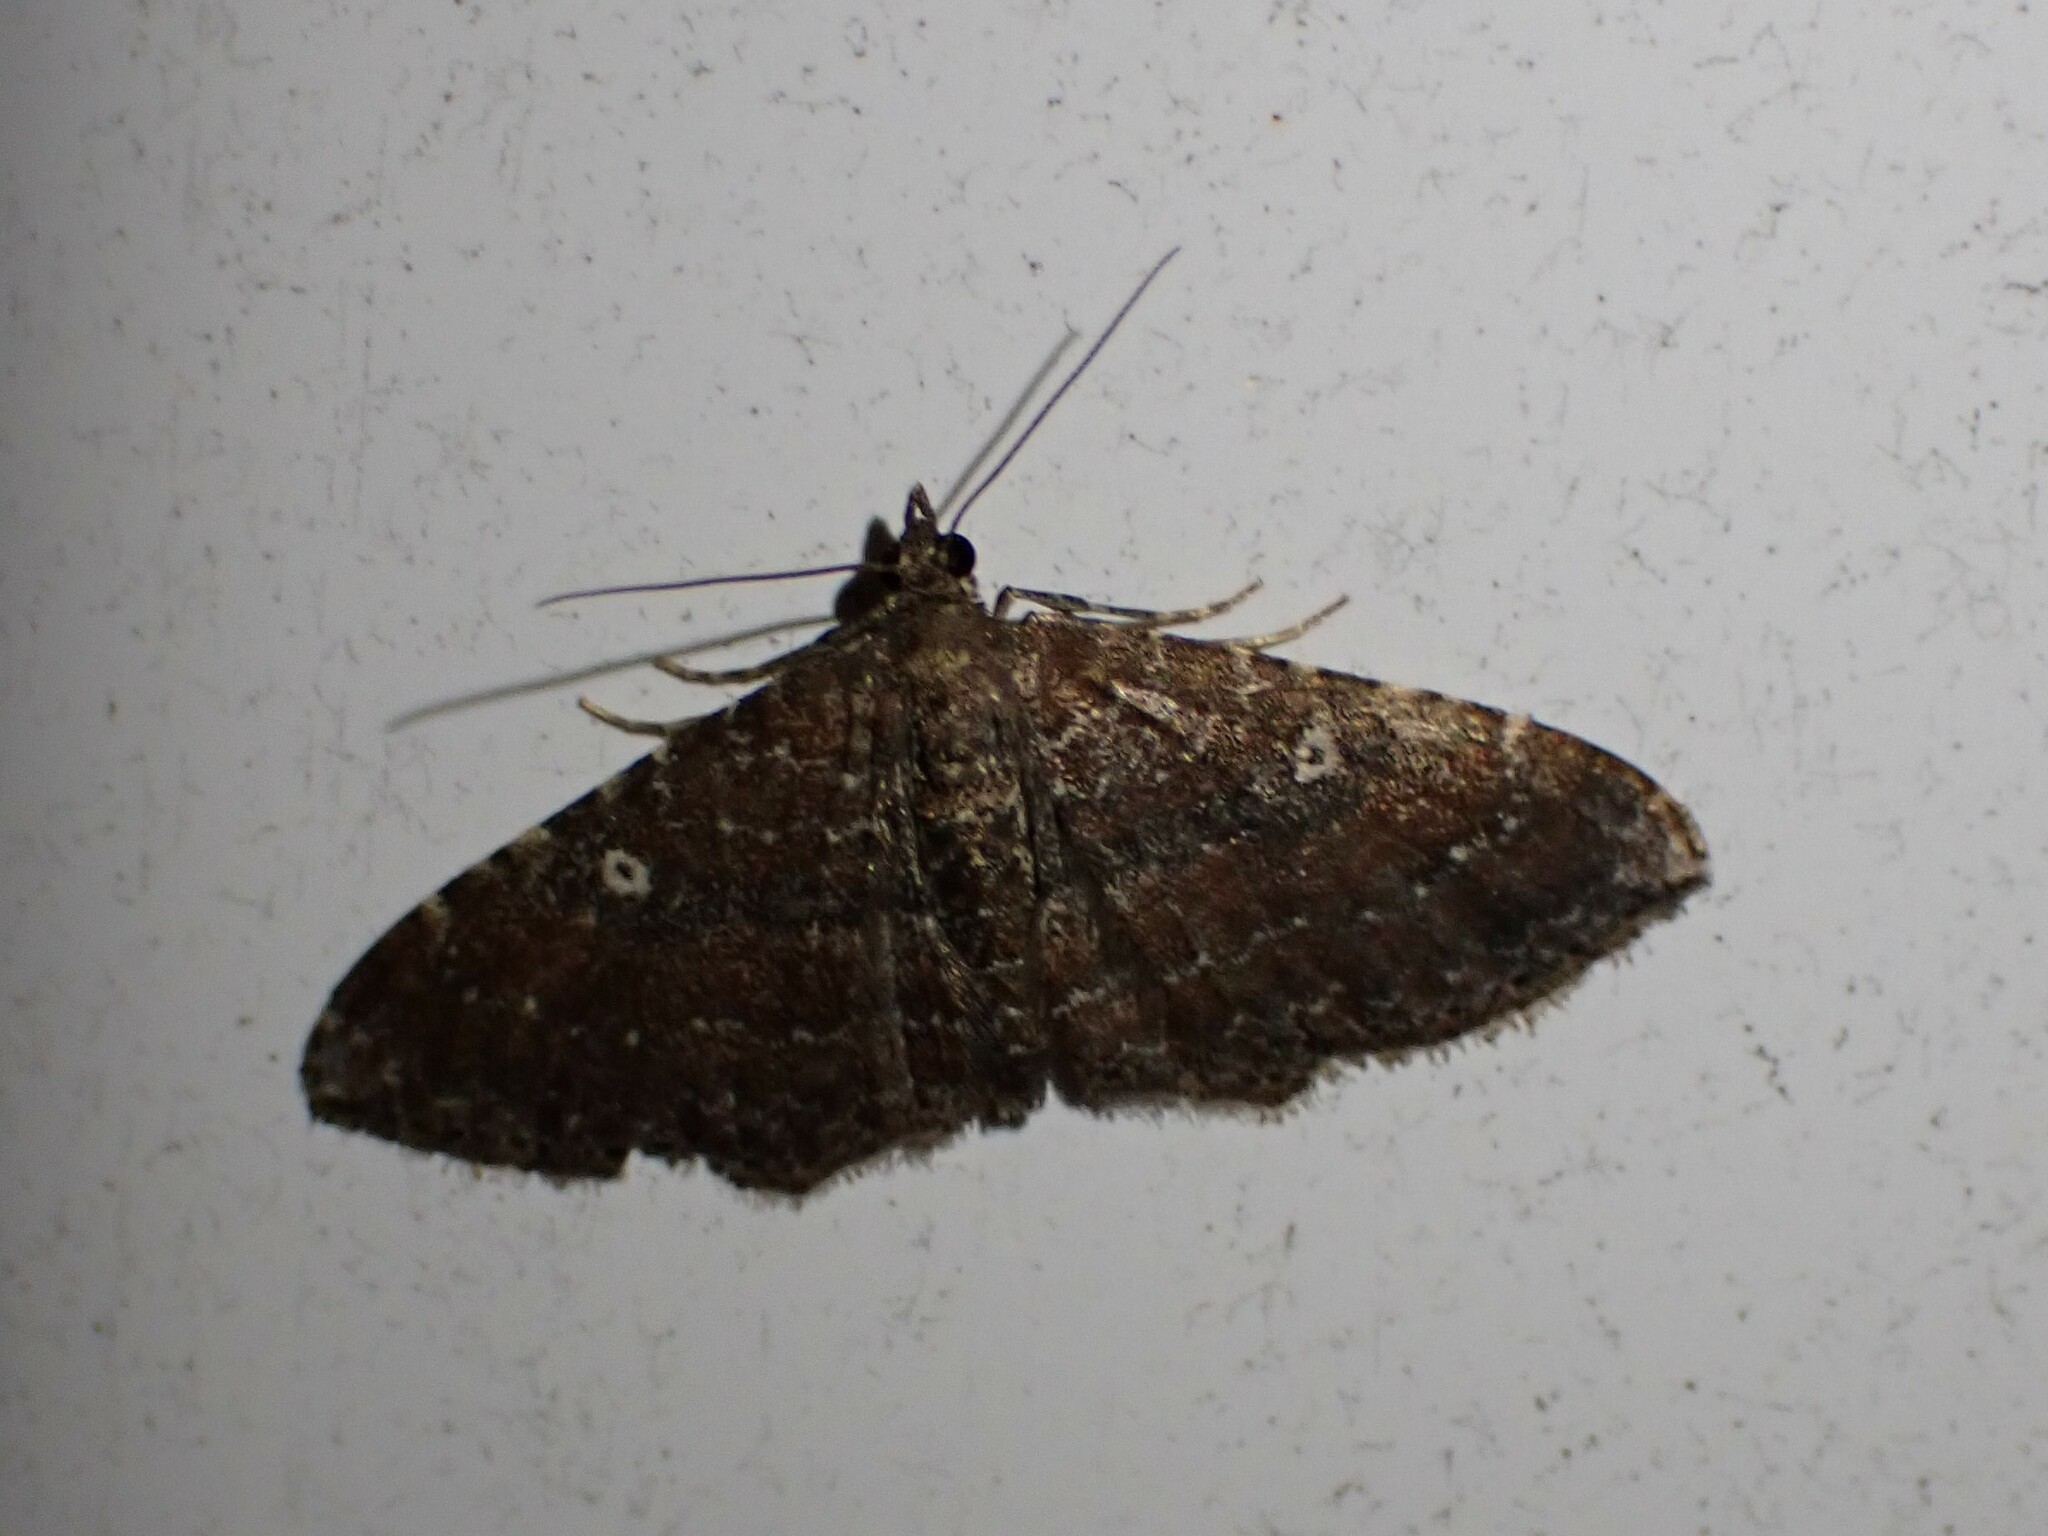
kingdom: Animalia
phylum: Arthropoda
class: Insecta
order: Lepidoptera
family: Geometridae
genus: Orthonama
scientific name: Orthonama obstipata
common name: The gem
